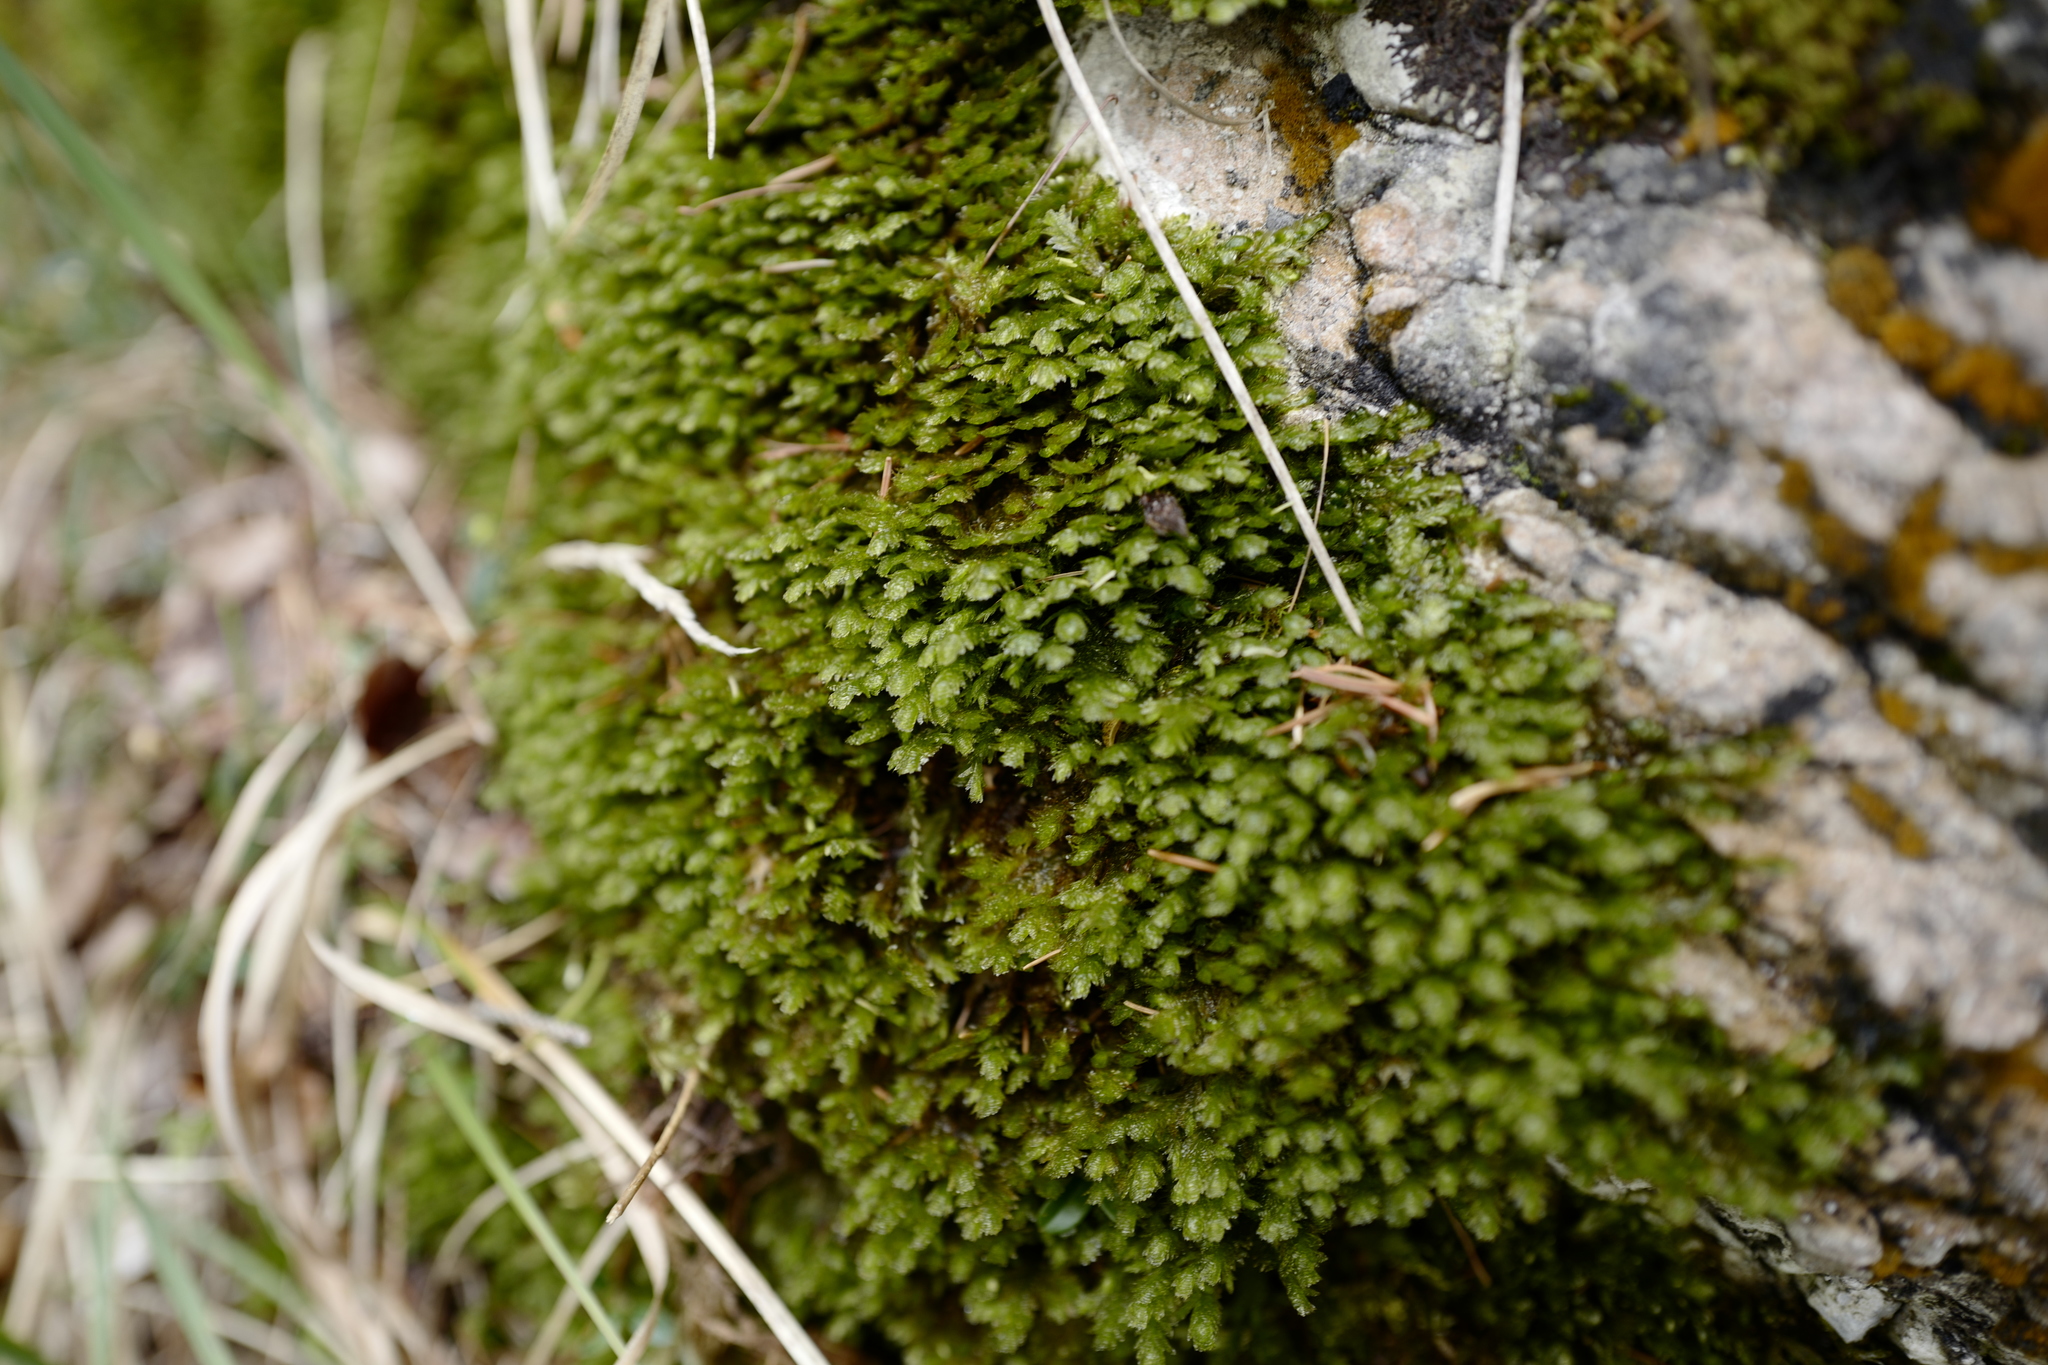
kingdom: Plantae
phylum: Bryophyta
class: Bryopsida
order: Hypnales
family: Neckeraceae
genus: Exsertotheca
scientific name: Exsertotheca crispa
